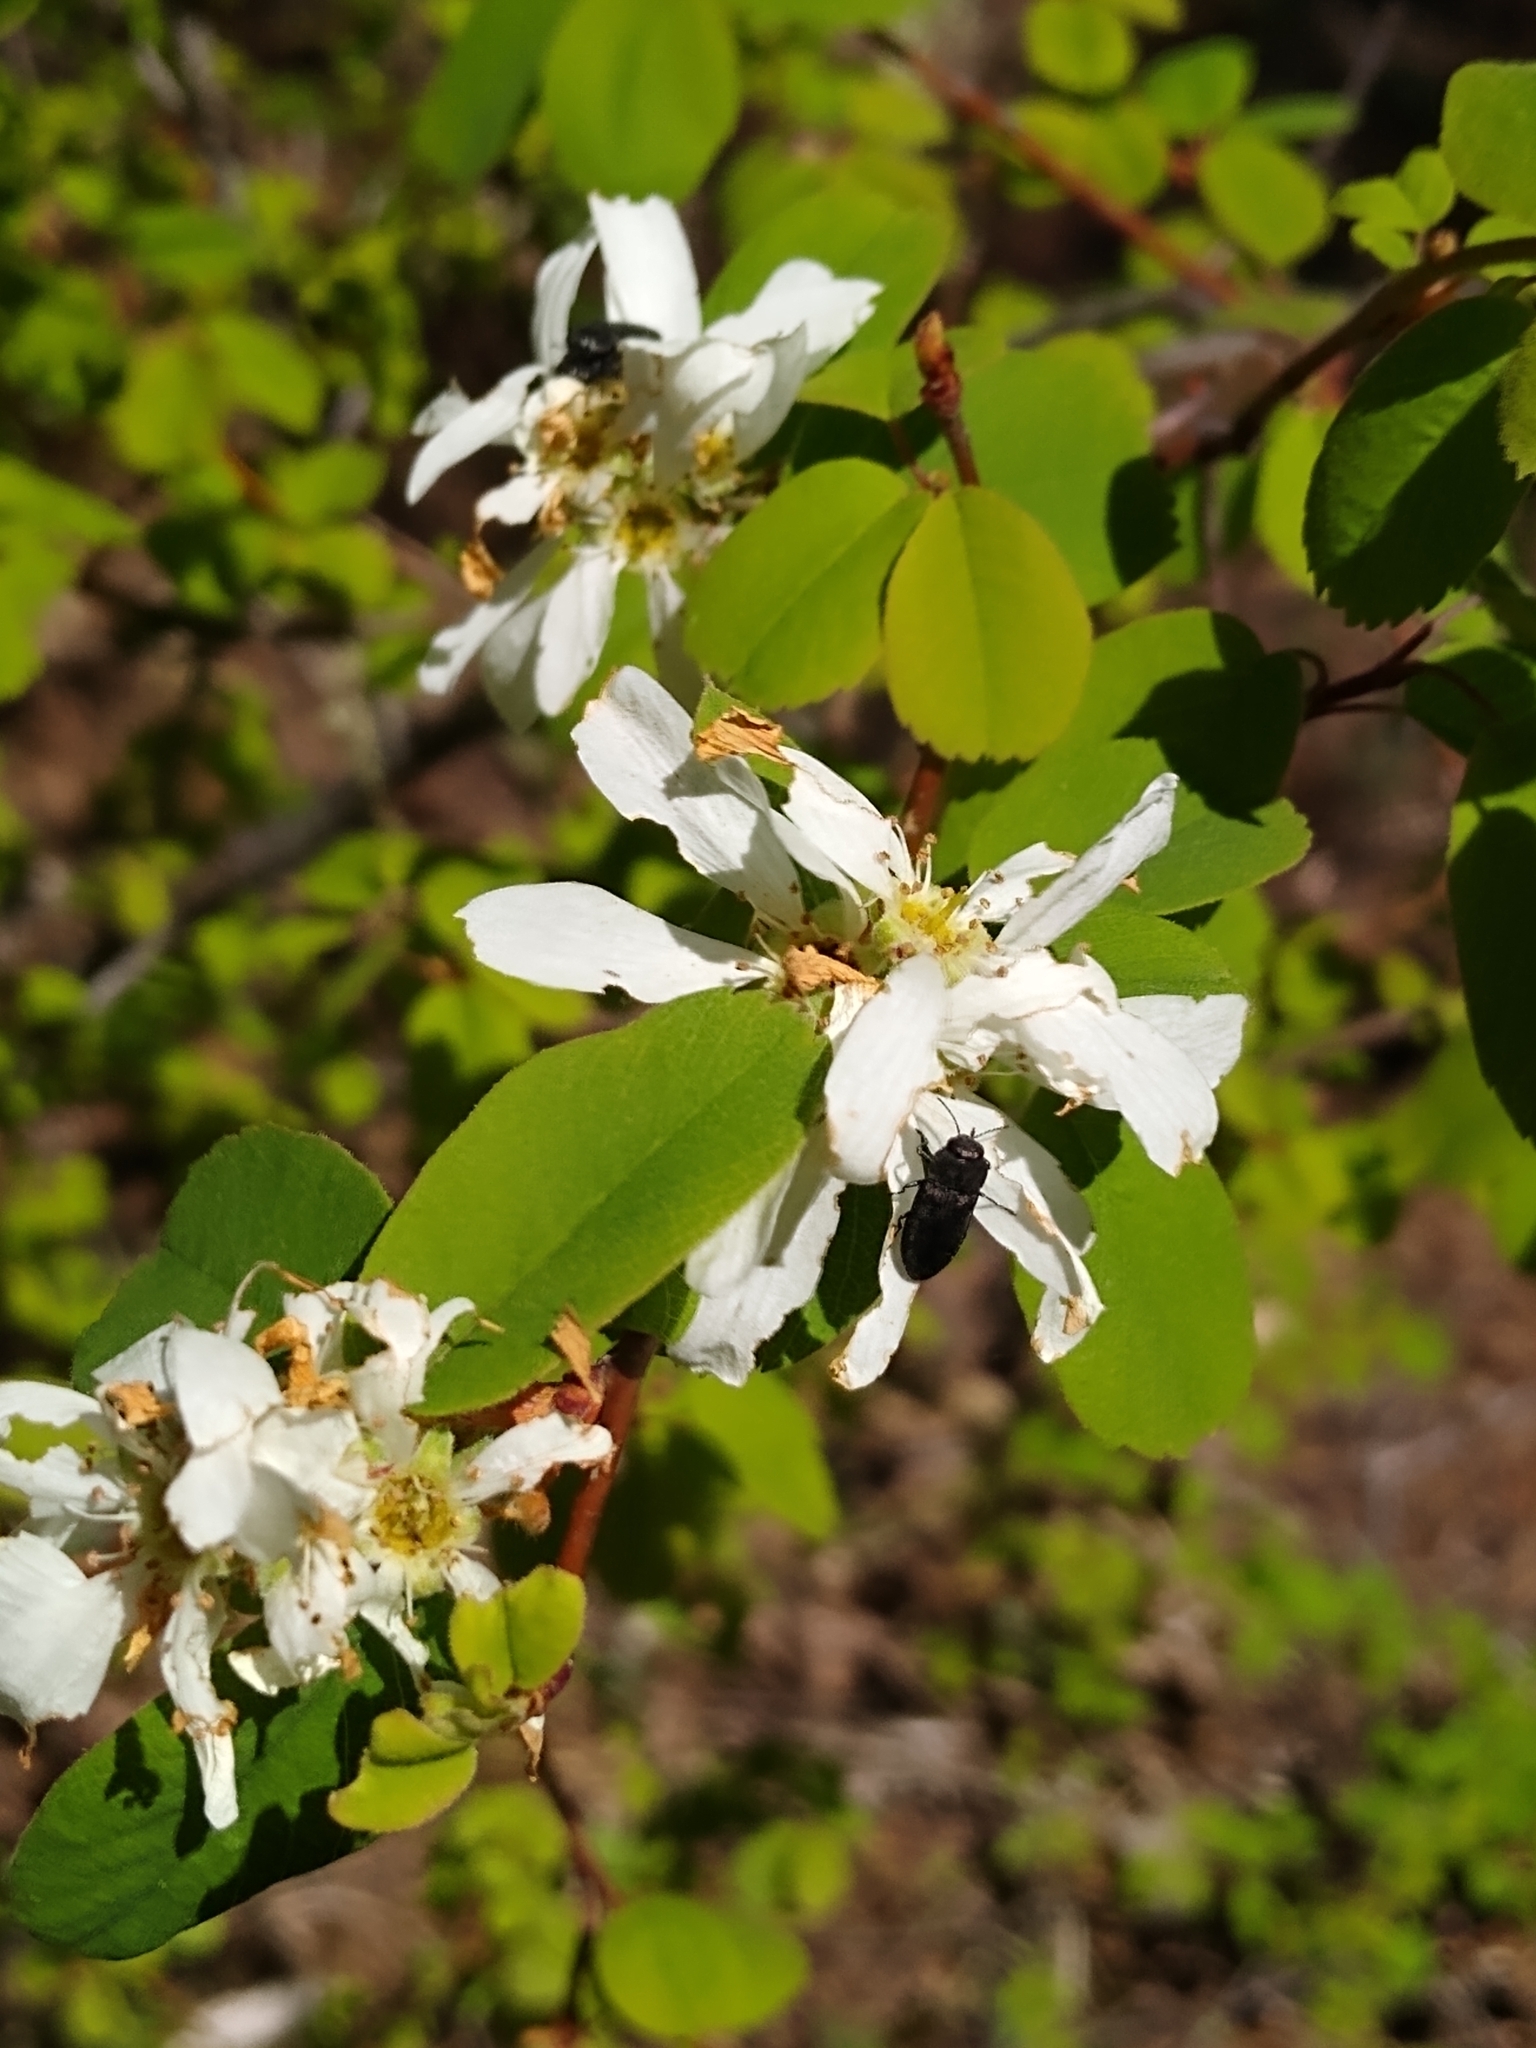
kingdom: Plantae
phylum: Tracheophyta
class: Magnoliopsida
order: Rosales
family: Rosaceae
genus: Amelanchier
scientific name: Amelanchier alnifolia
